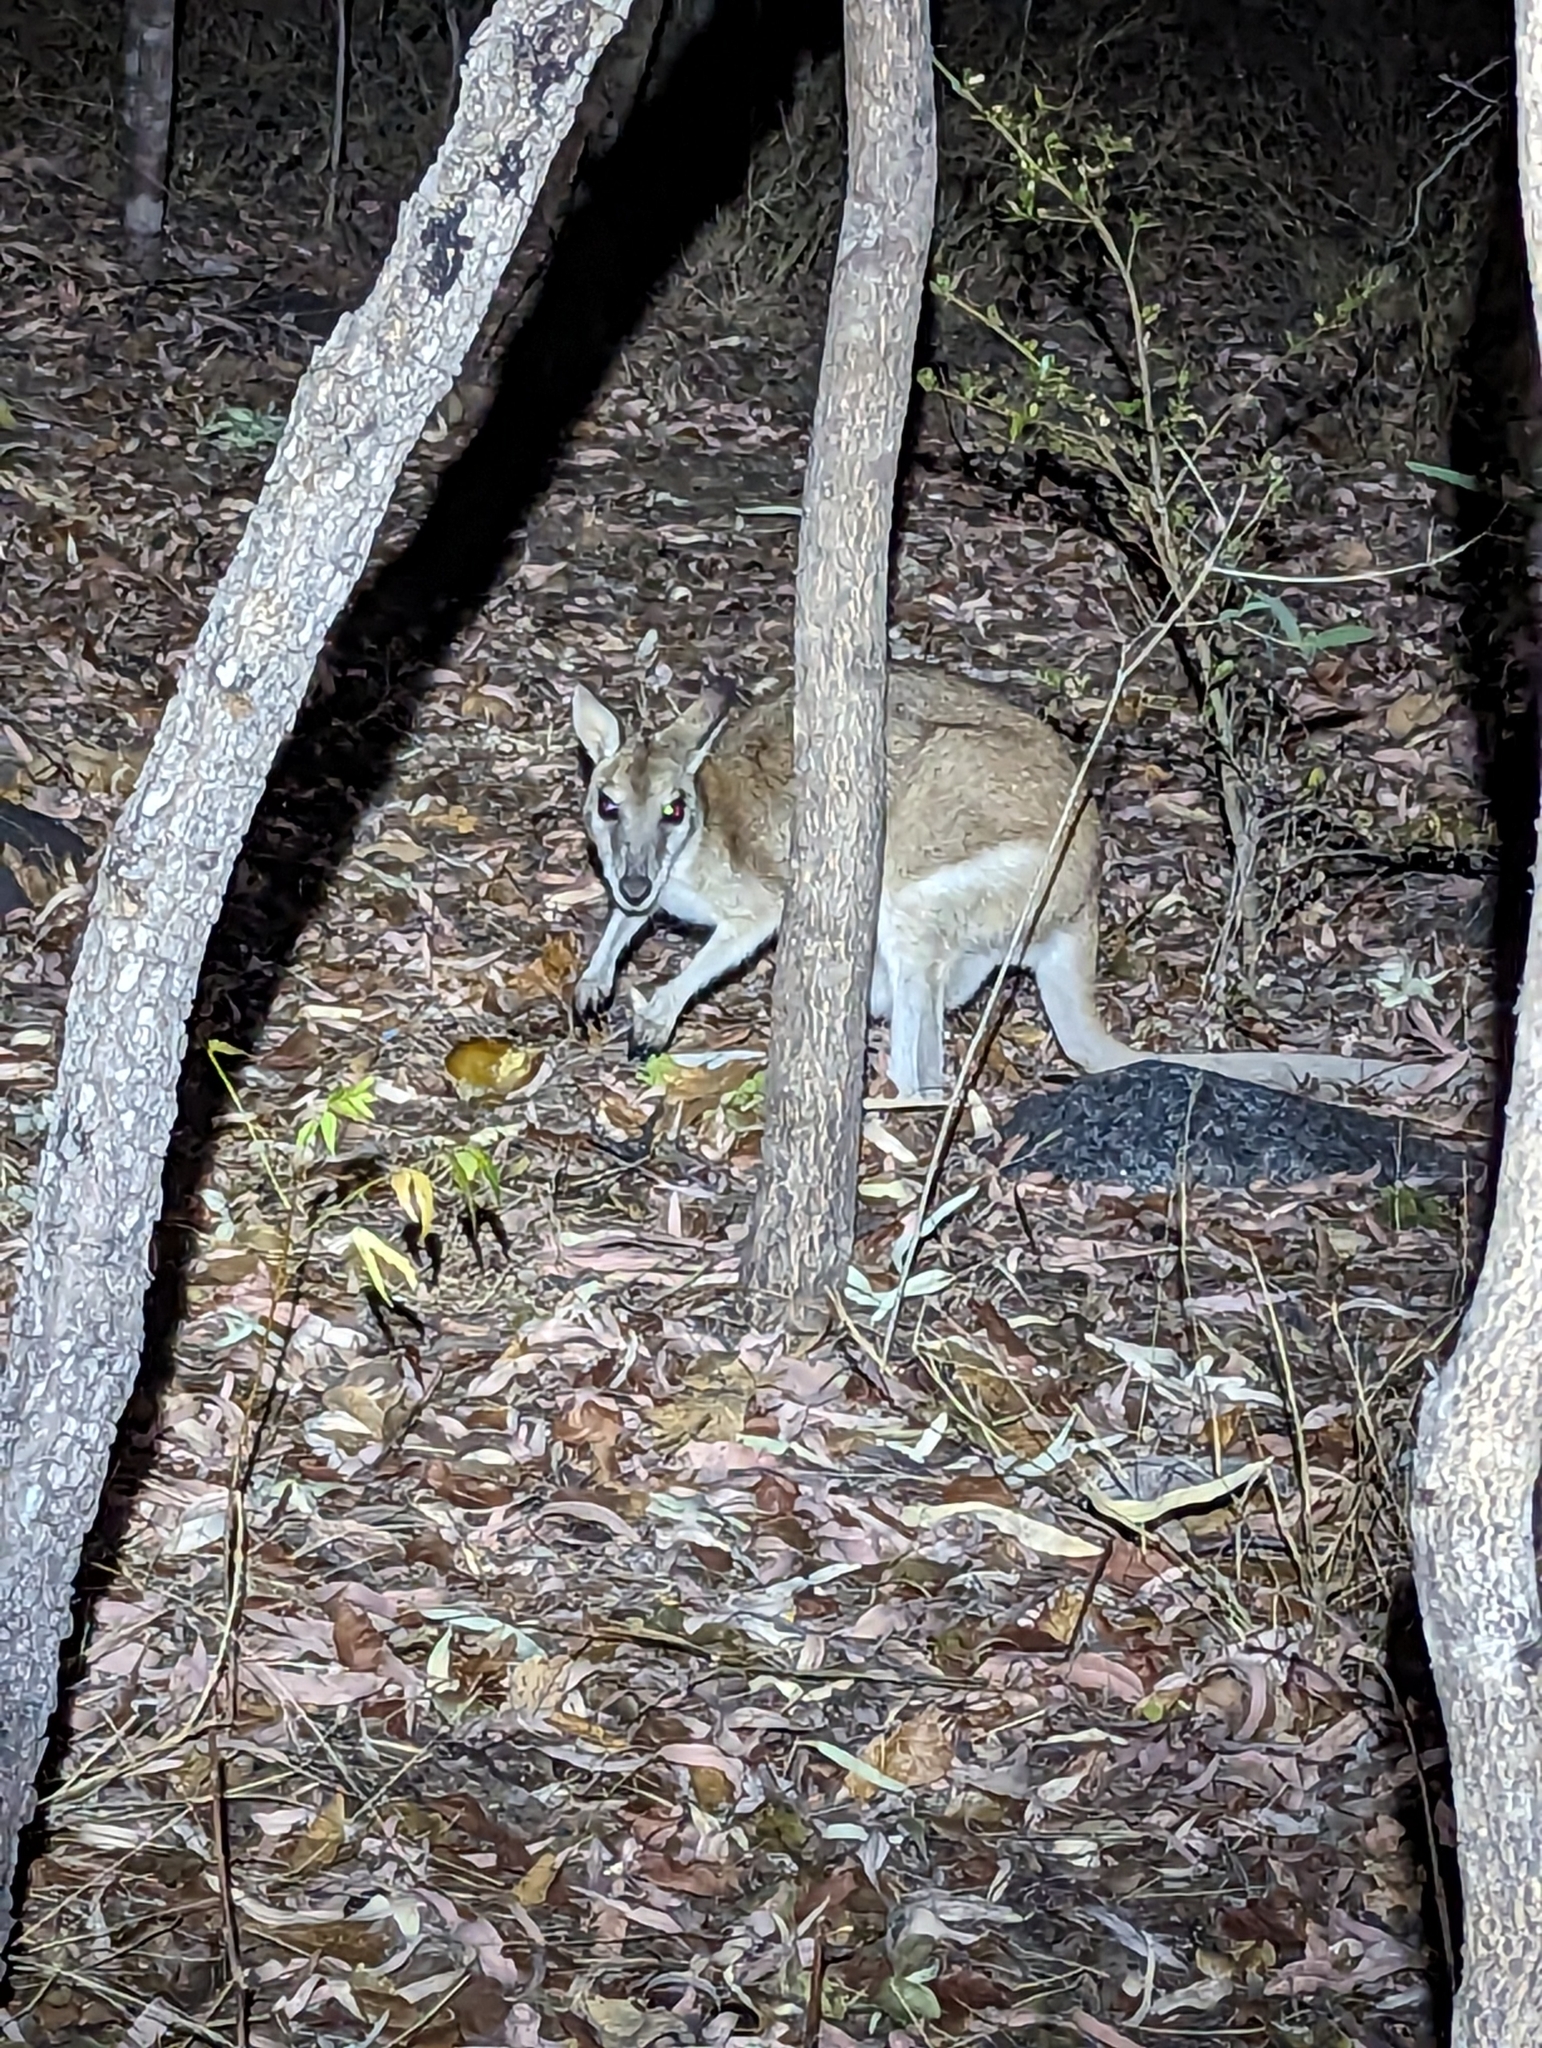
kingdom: Animalia
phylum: Chordata
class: Mammalia
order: Diprotodontia
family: Macropodidae
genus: Macropus
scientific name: Macropus agilis
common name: Agile wallaby
